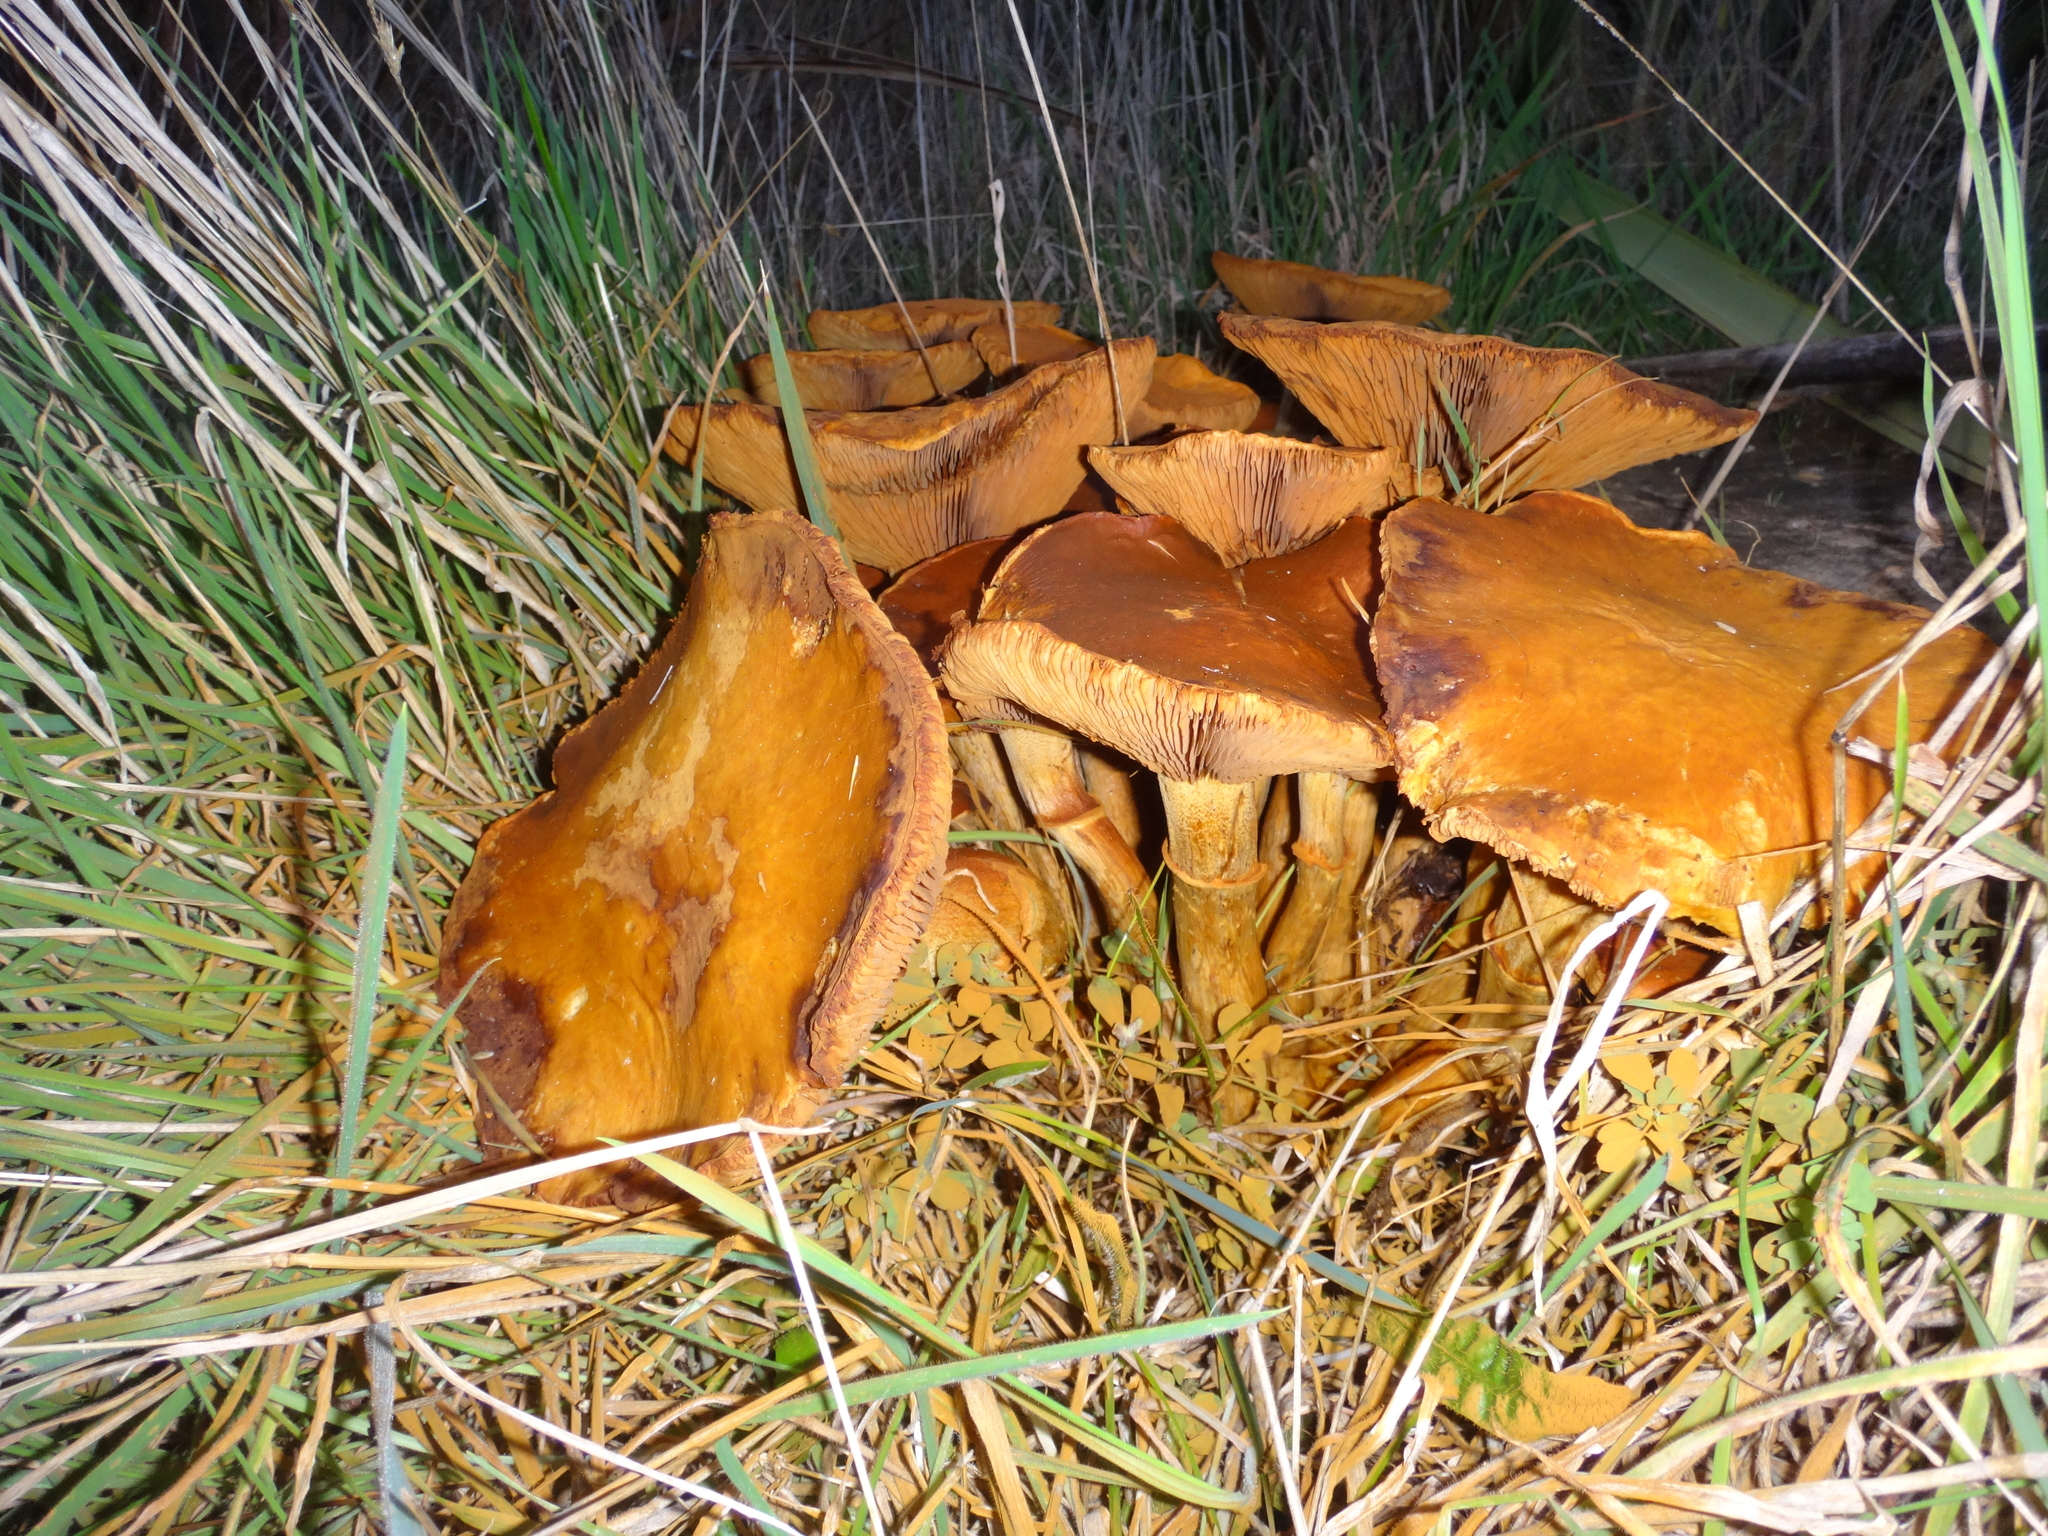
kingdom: Fungi
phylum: Basidiomycota
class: Agaricomycetes
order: Agaricales
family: Hymenogastraceae
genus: Gymnopilus
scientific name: Gymnopilus junonius
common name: Spectacular rustgill
